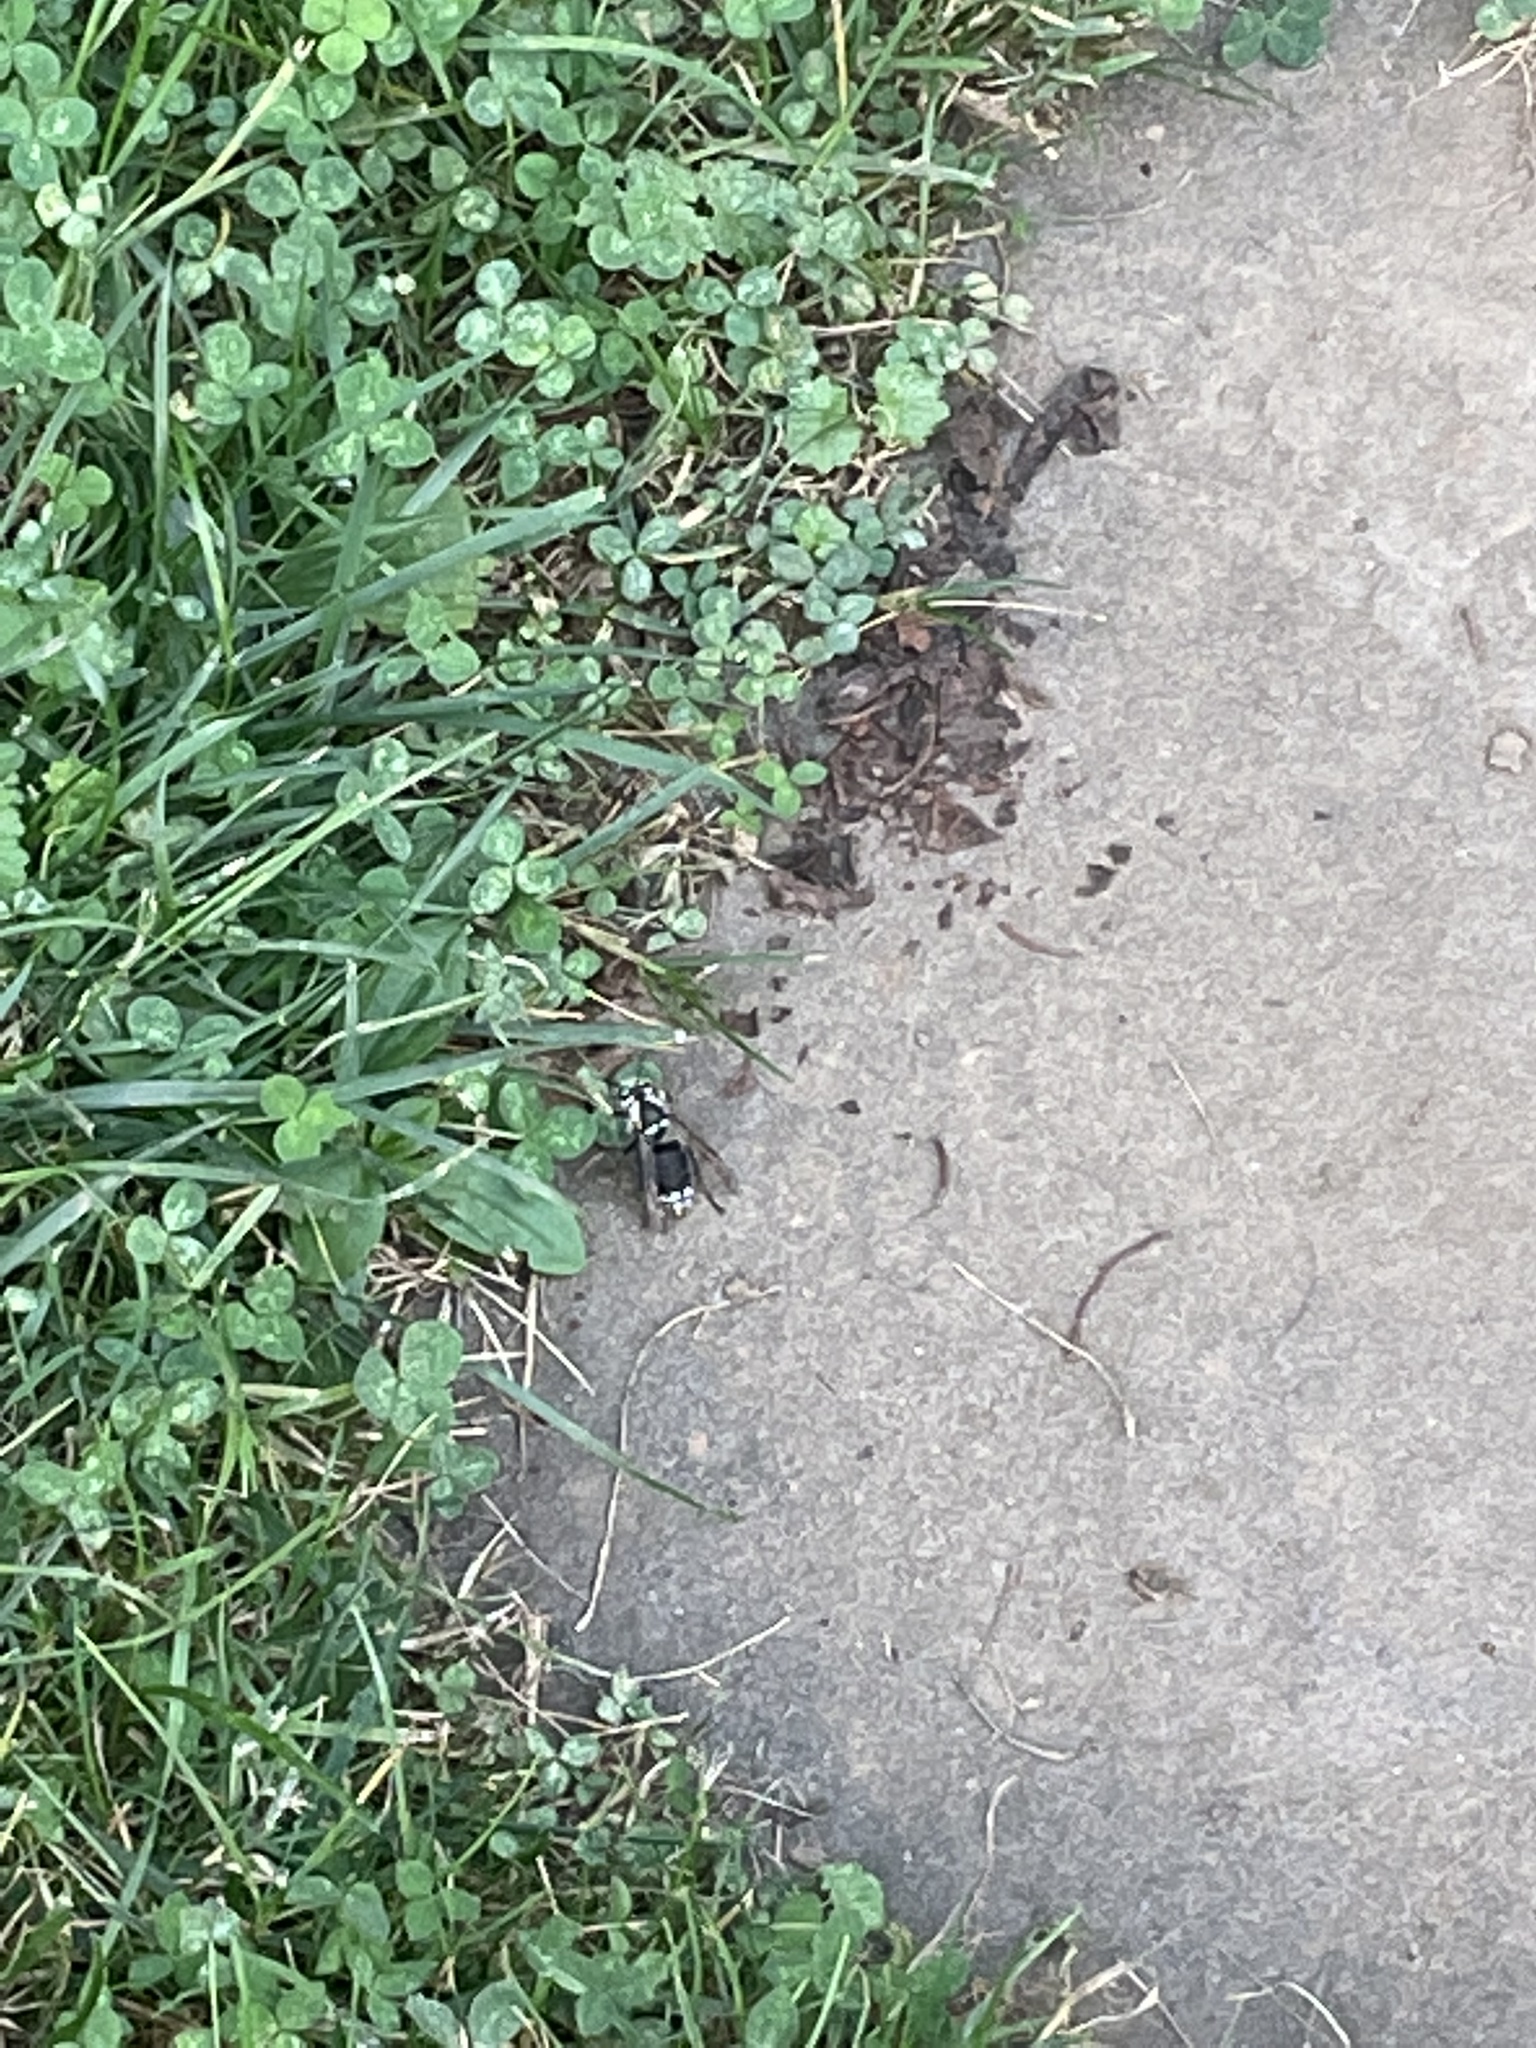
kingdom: Animalia
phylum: Arthropoda
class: Insecta
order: Hymenoptera
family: Vespidae
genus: Dolichovespula
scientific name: Dolichovespula maculata
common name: Bald-faced hornet
